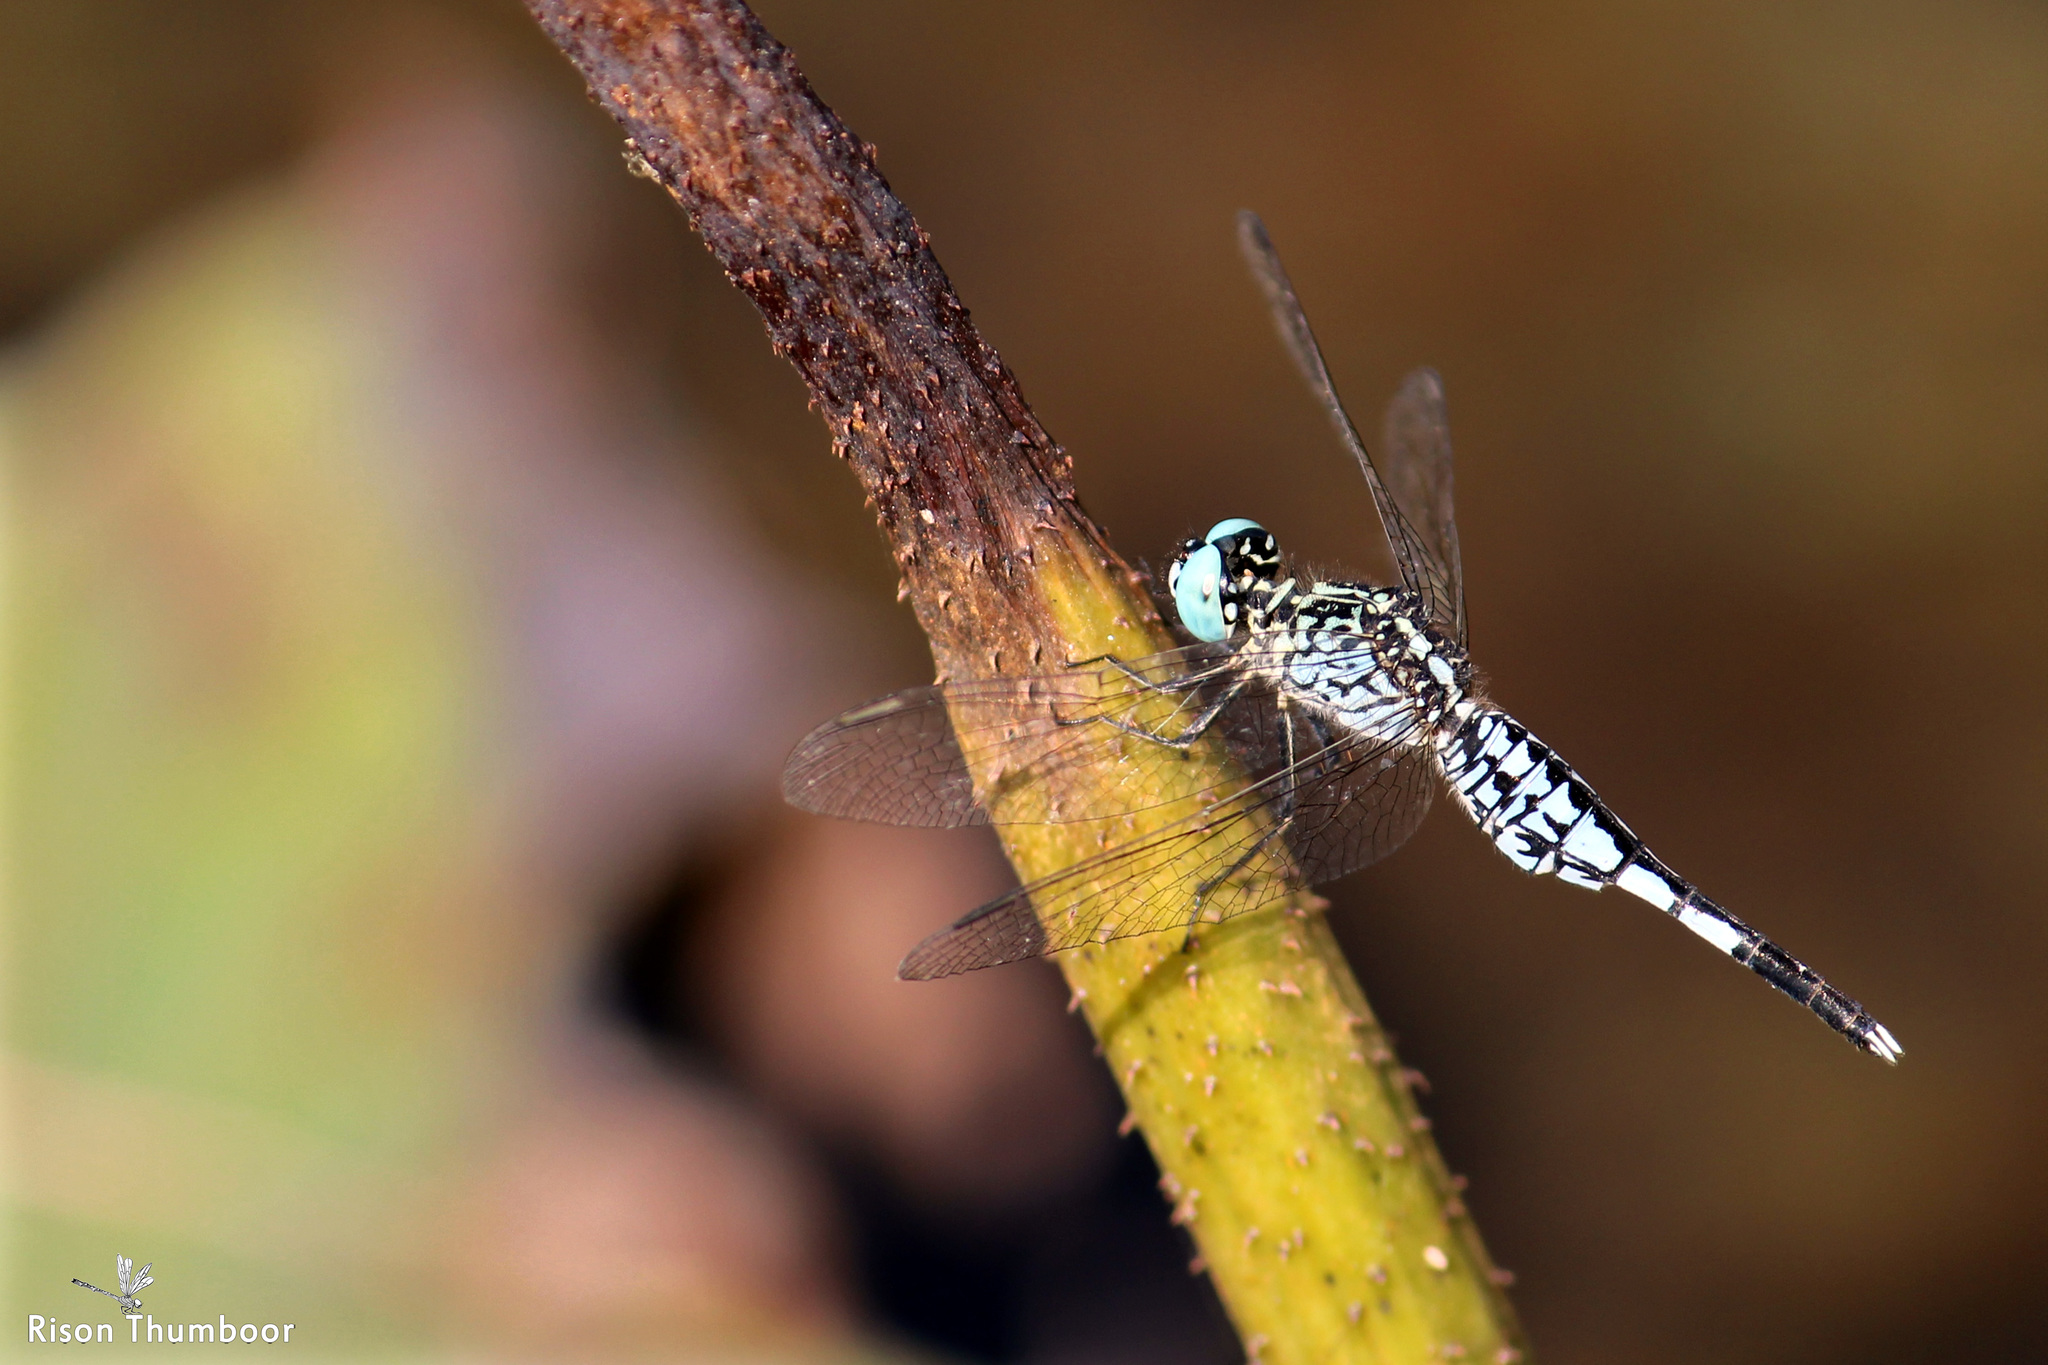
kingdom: Animalia
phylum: Arthropoda
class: Insecta
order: Odonata
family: Libellulidae
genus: Acisoma
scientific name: Acisoma panorpoides
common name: Asian pintail
